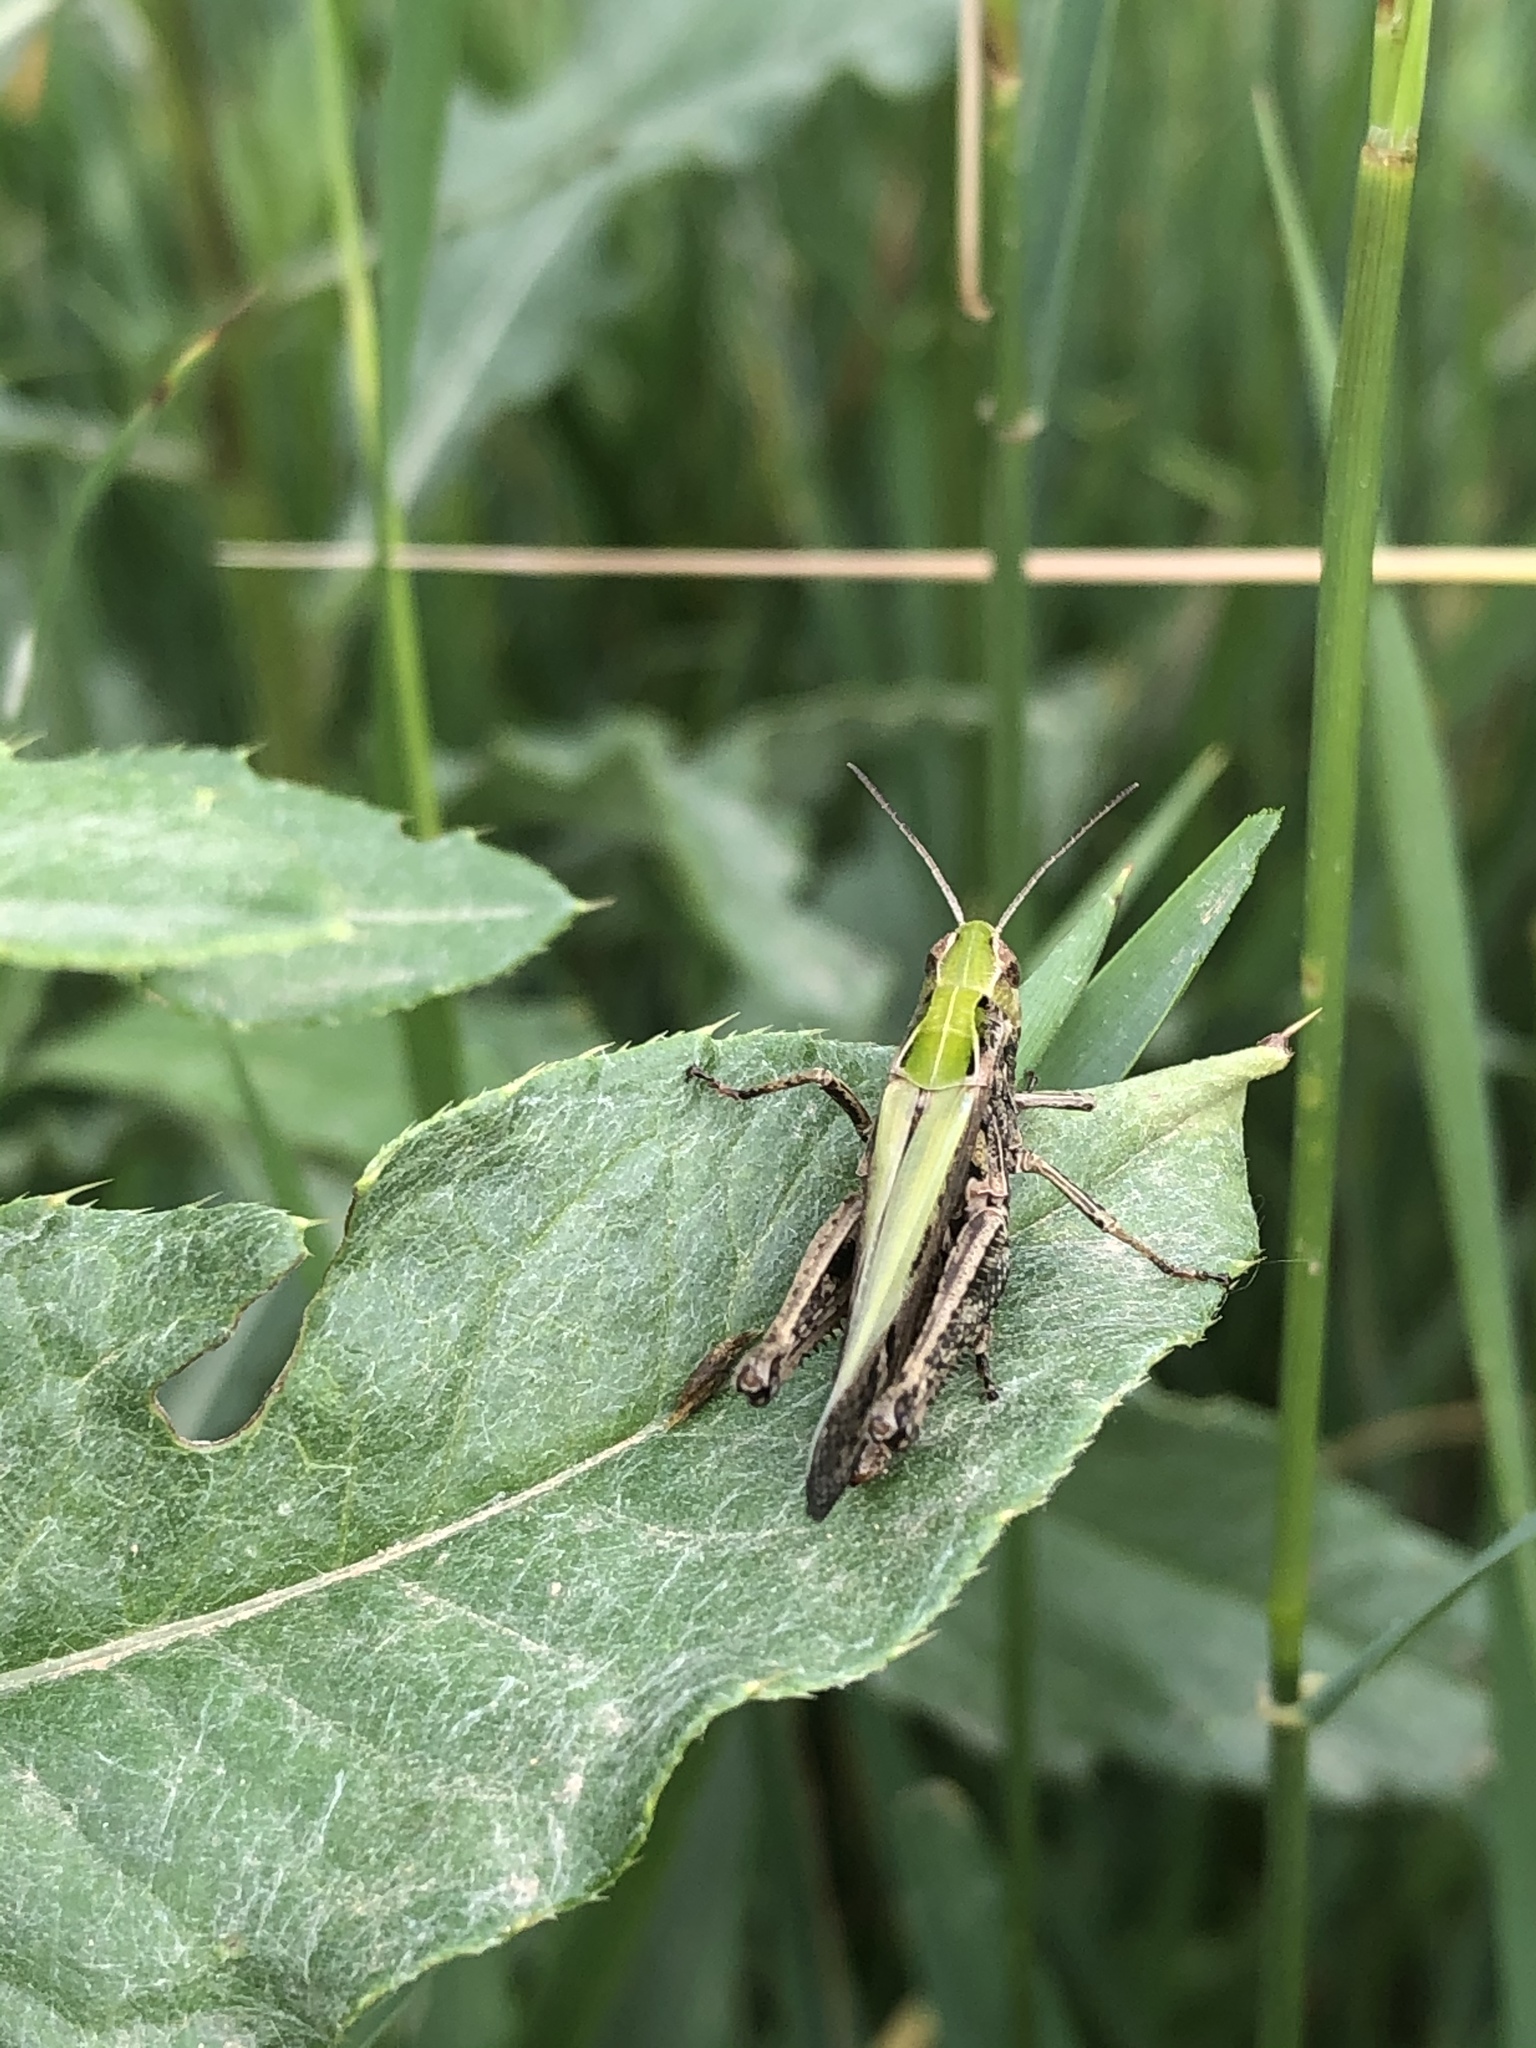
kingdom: Animalia
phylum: Arthropoda
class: Insecta
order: Orthoptera
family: Acrididae
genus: Omocestus
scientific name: Omocestus rufipes
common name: Woodland grasshopper
